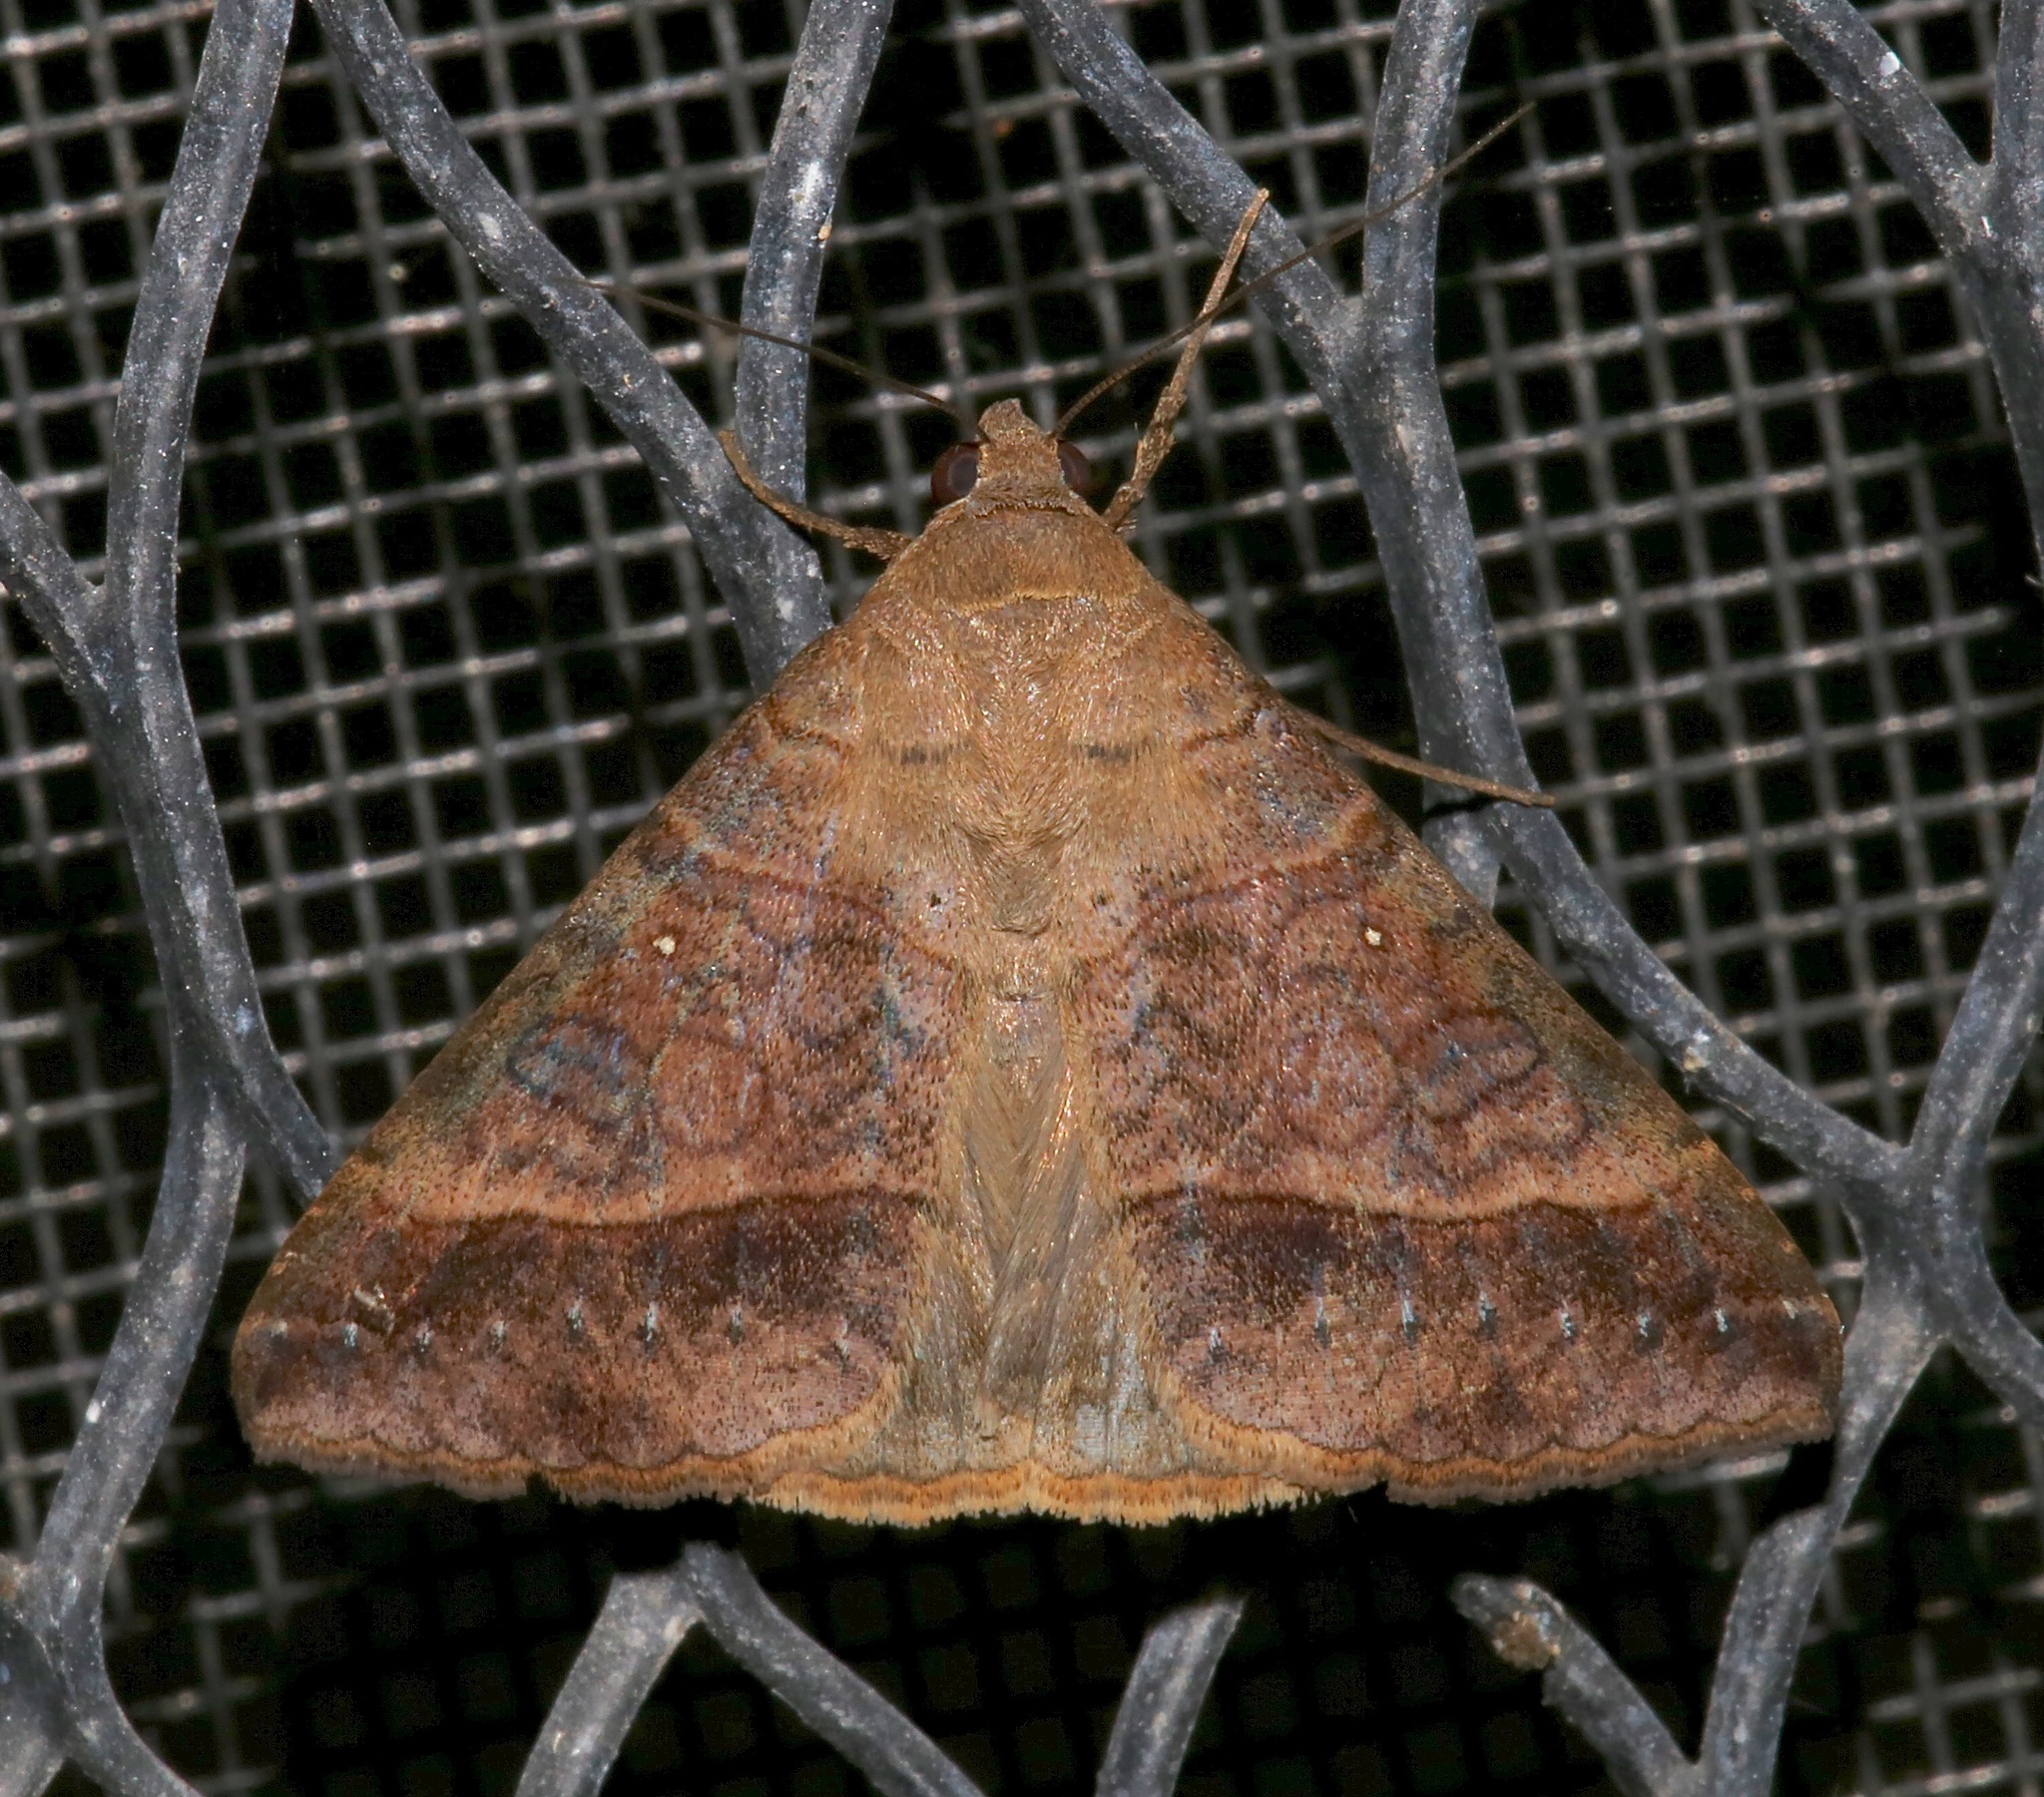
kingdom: Animalia
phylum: Arthropoda
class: Insecta
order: Lepidoptera
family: Erebidae
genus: Mocis
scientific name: Mocis latipes
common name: Striped grass looper
